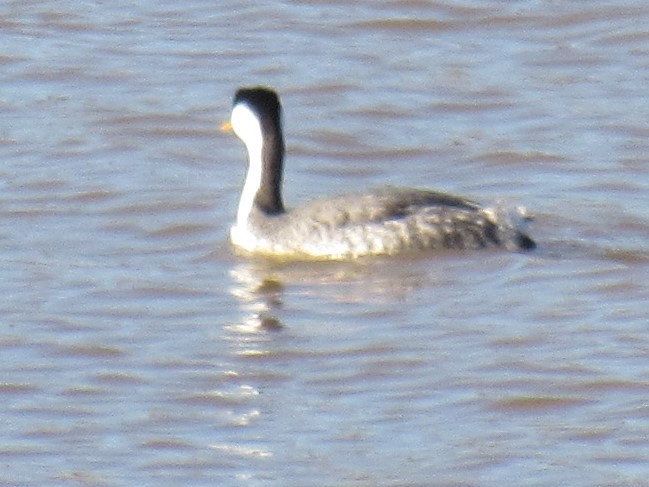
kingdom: Animalia
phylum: Chordata
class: Aves
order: Podicipediformes
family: Podicipedidae
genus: Aechmophorus
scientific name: Aechmophorus occidentalis
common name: Western grebe
